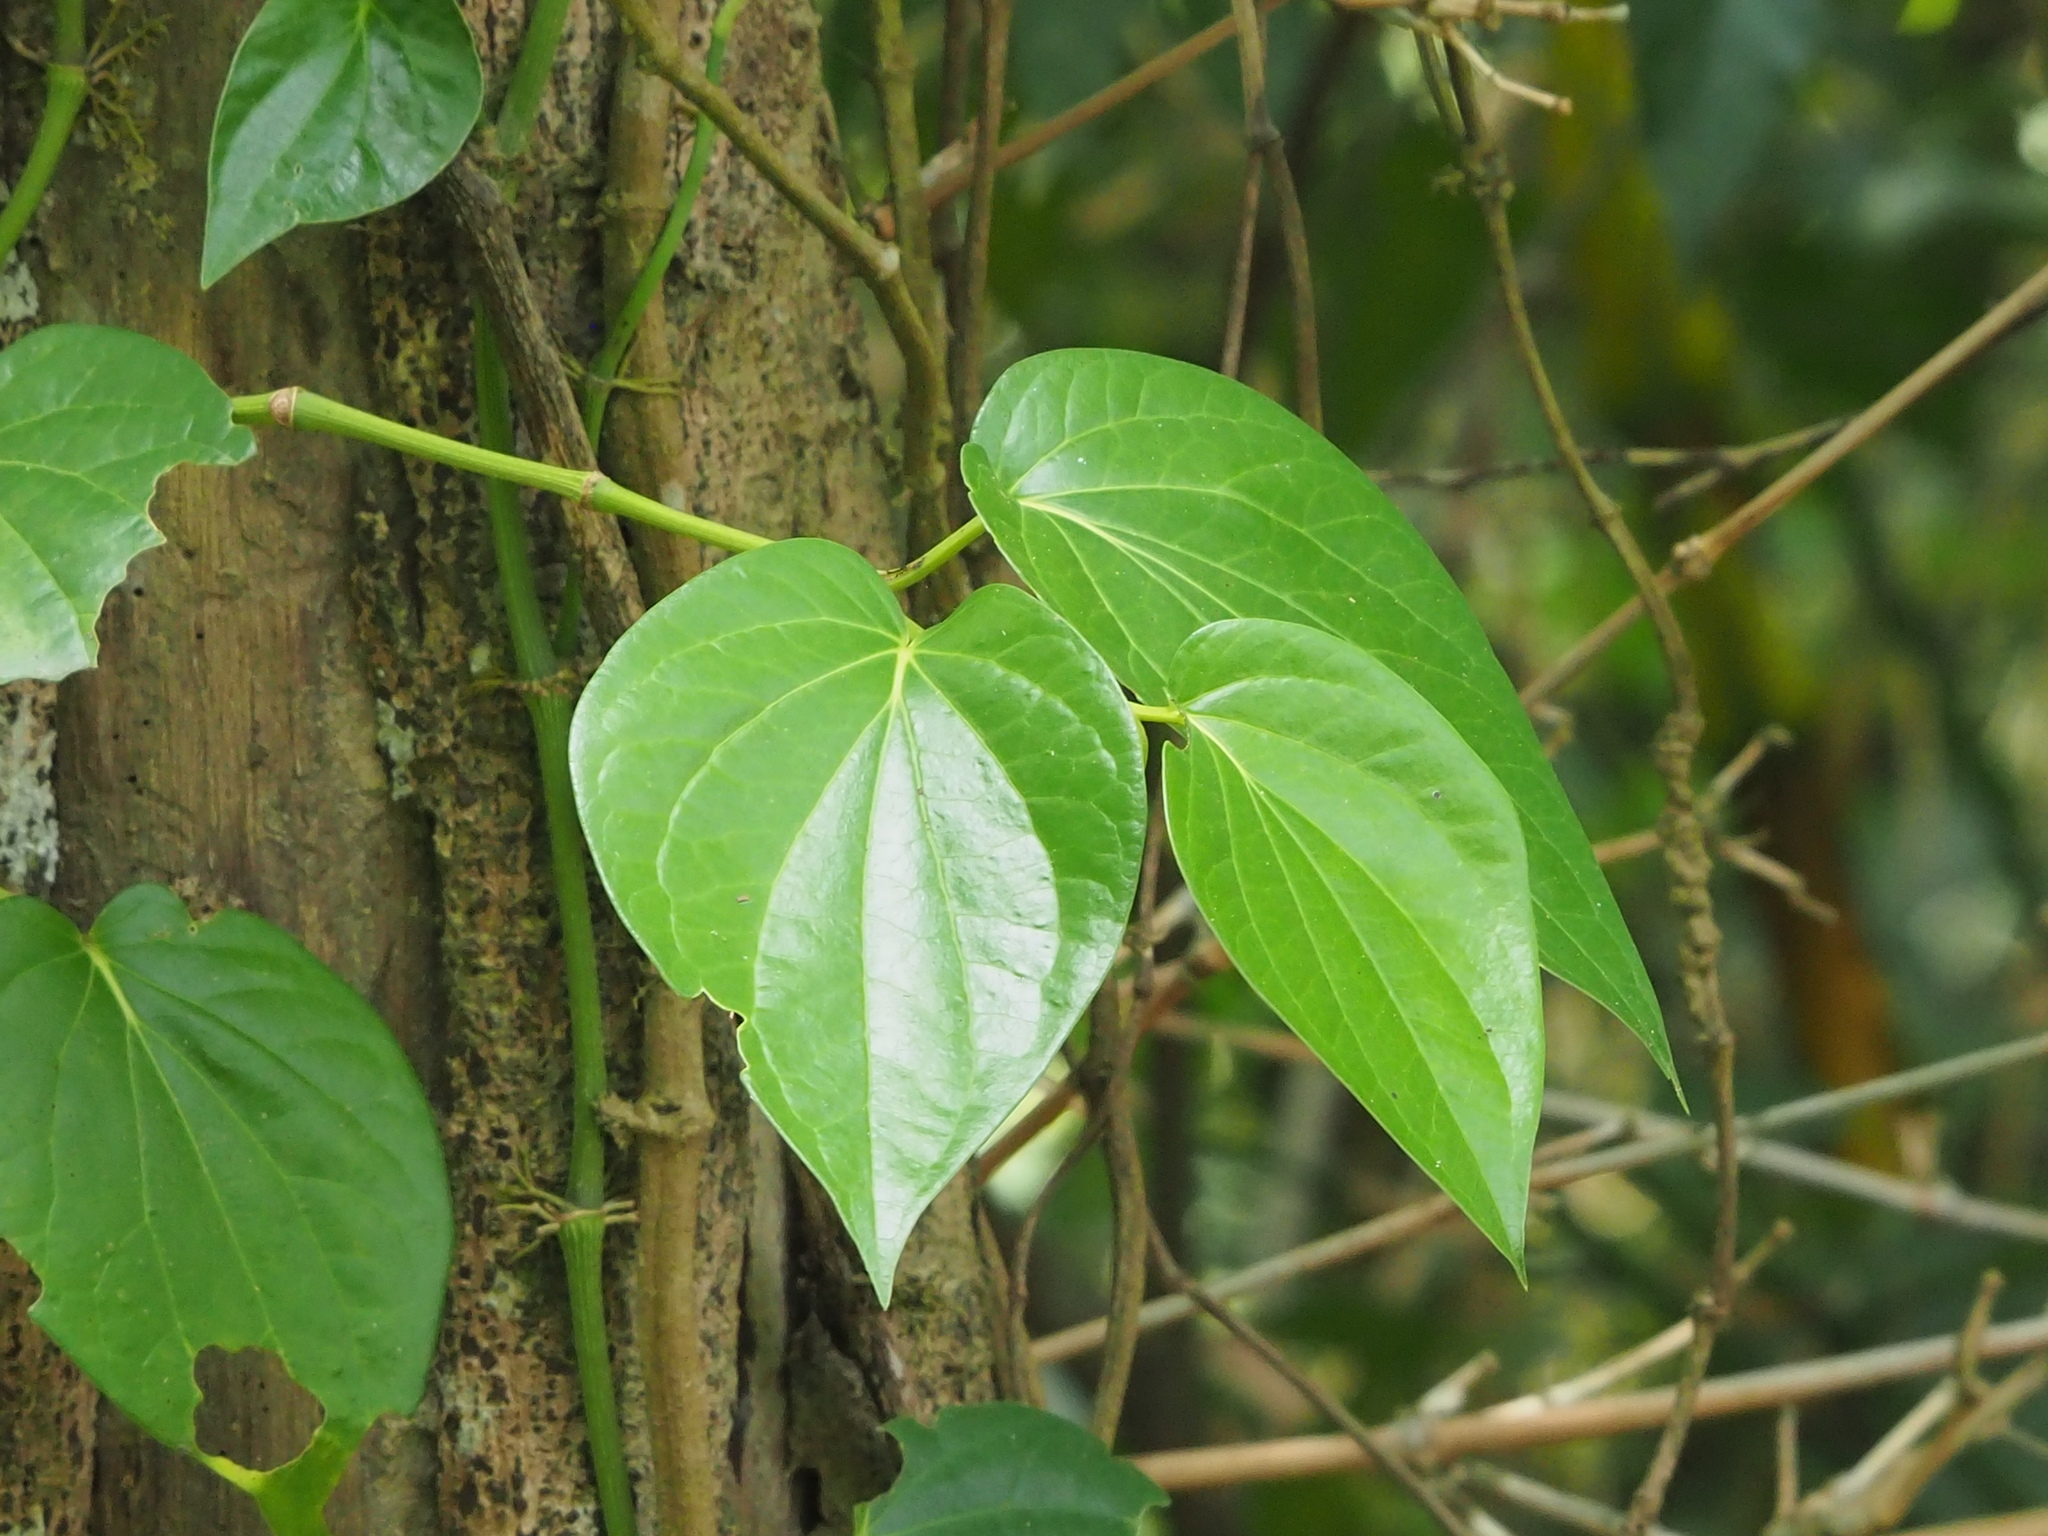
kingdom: Plantae
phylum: Tracheophyta
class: Magnoliopsida
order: Piperales
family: Piperaceae
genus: Piper
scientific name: Piper betle
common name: Betel pepper
